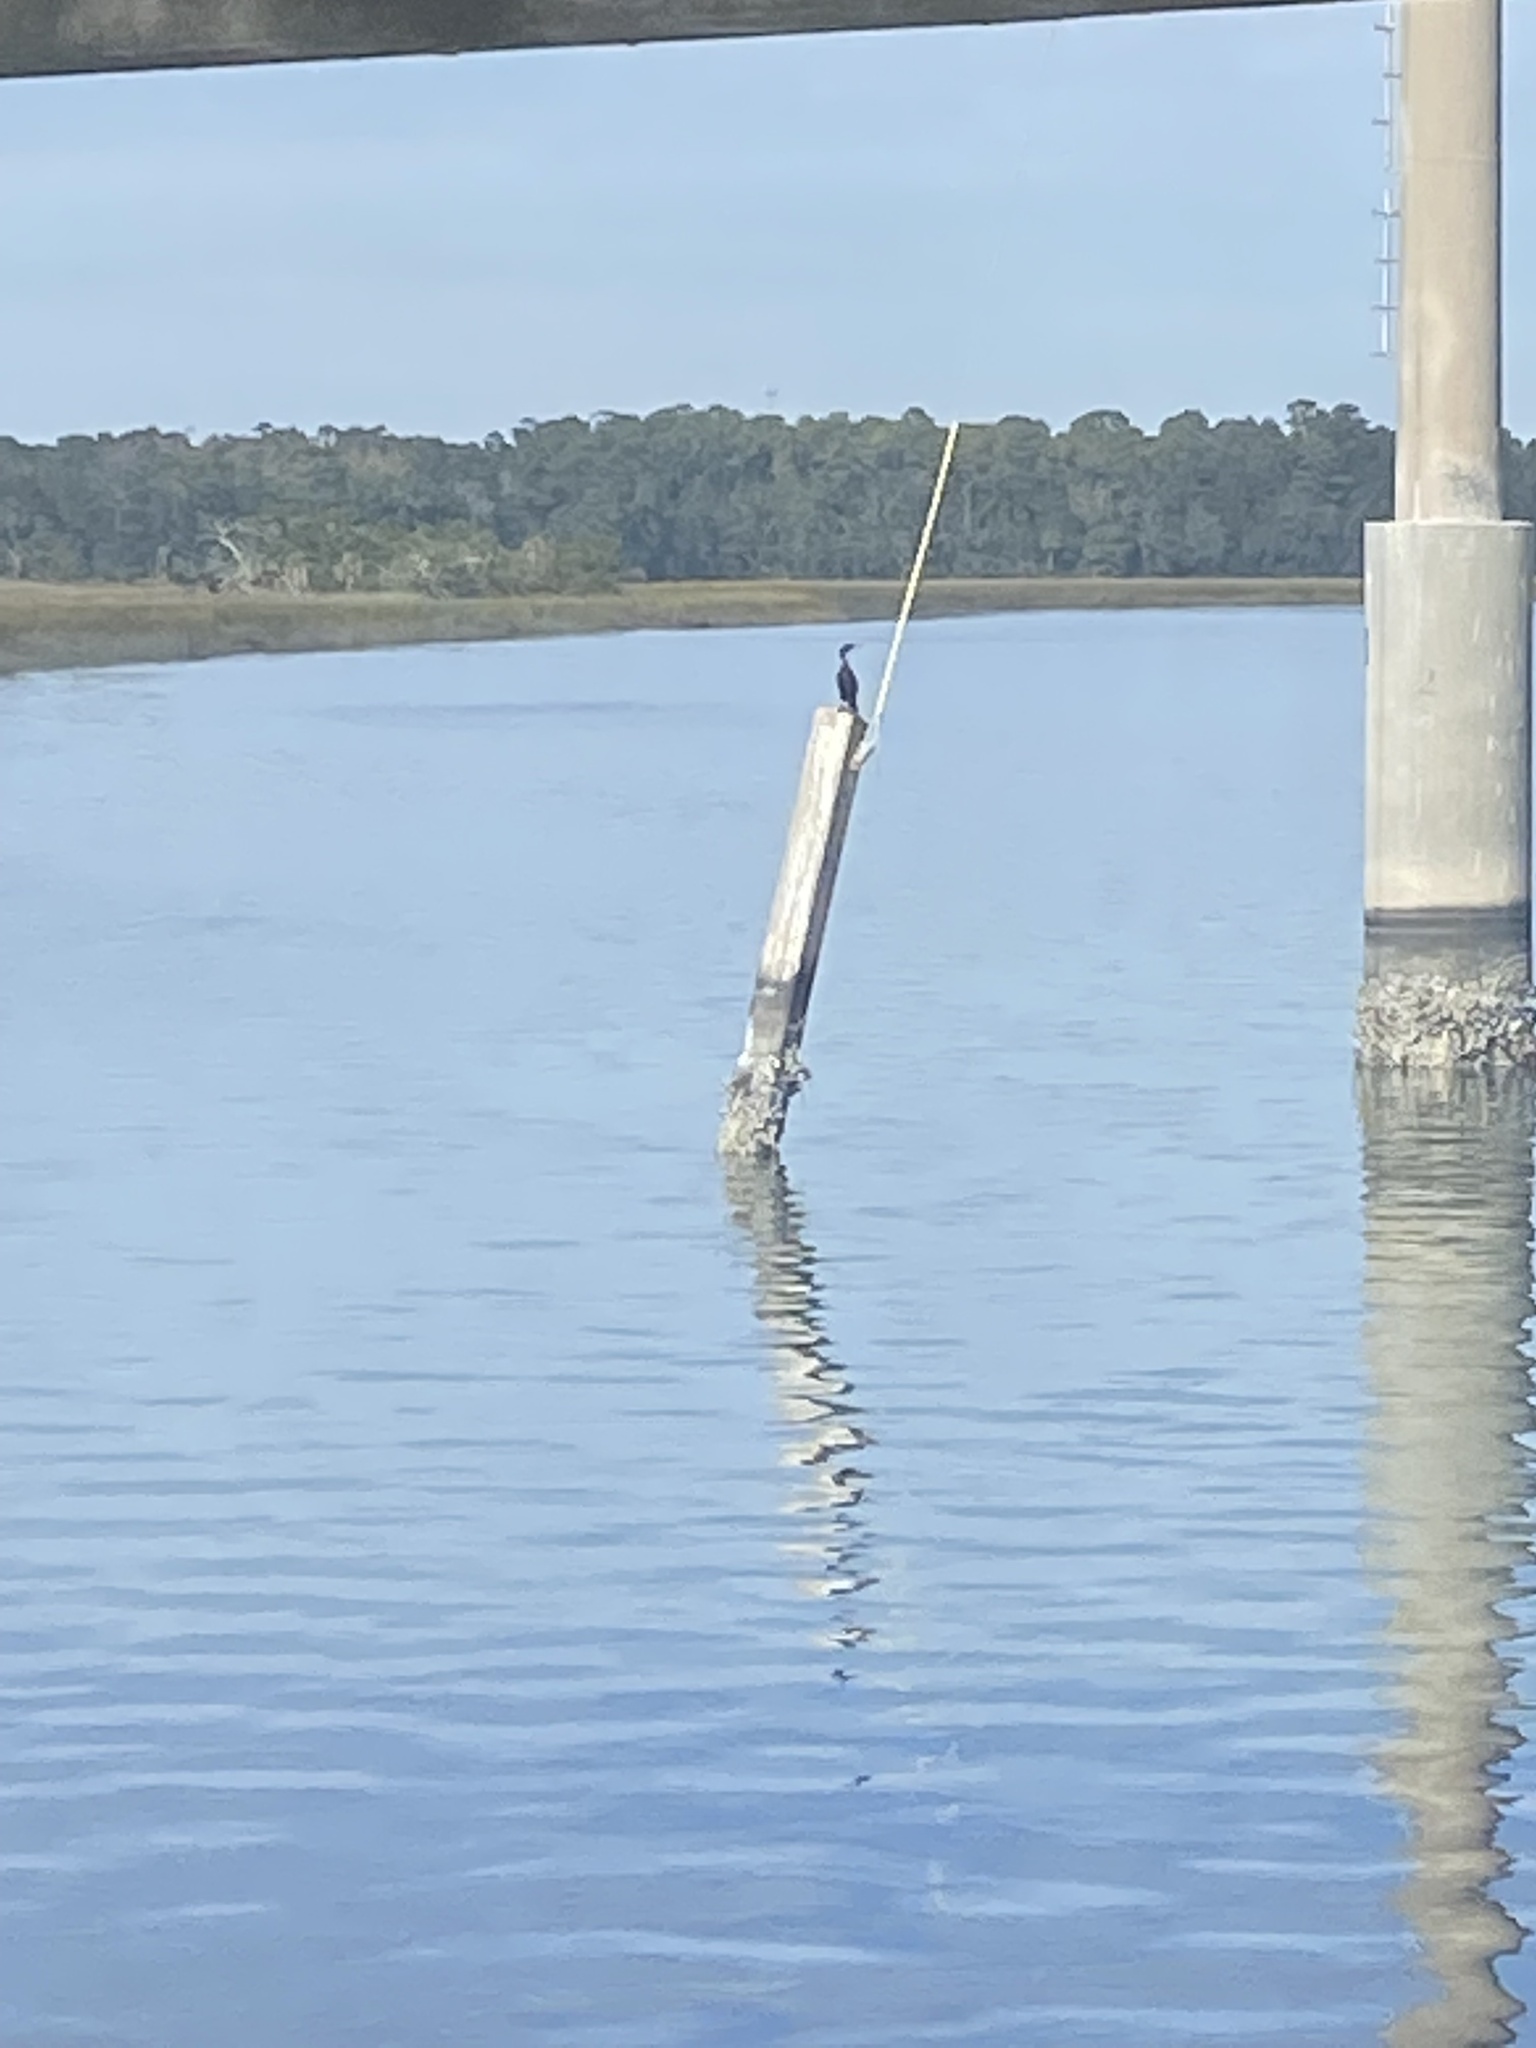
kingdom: Animalia
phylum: Chordata
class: Aves
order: Suliformes
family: Phalacrocoracidae
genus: Phalacrocorax
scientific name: Phalacrocorax auritus
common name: Double-crested cormorant
